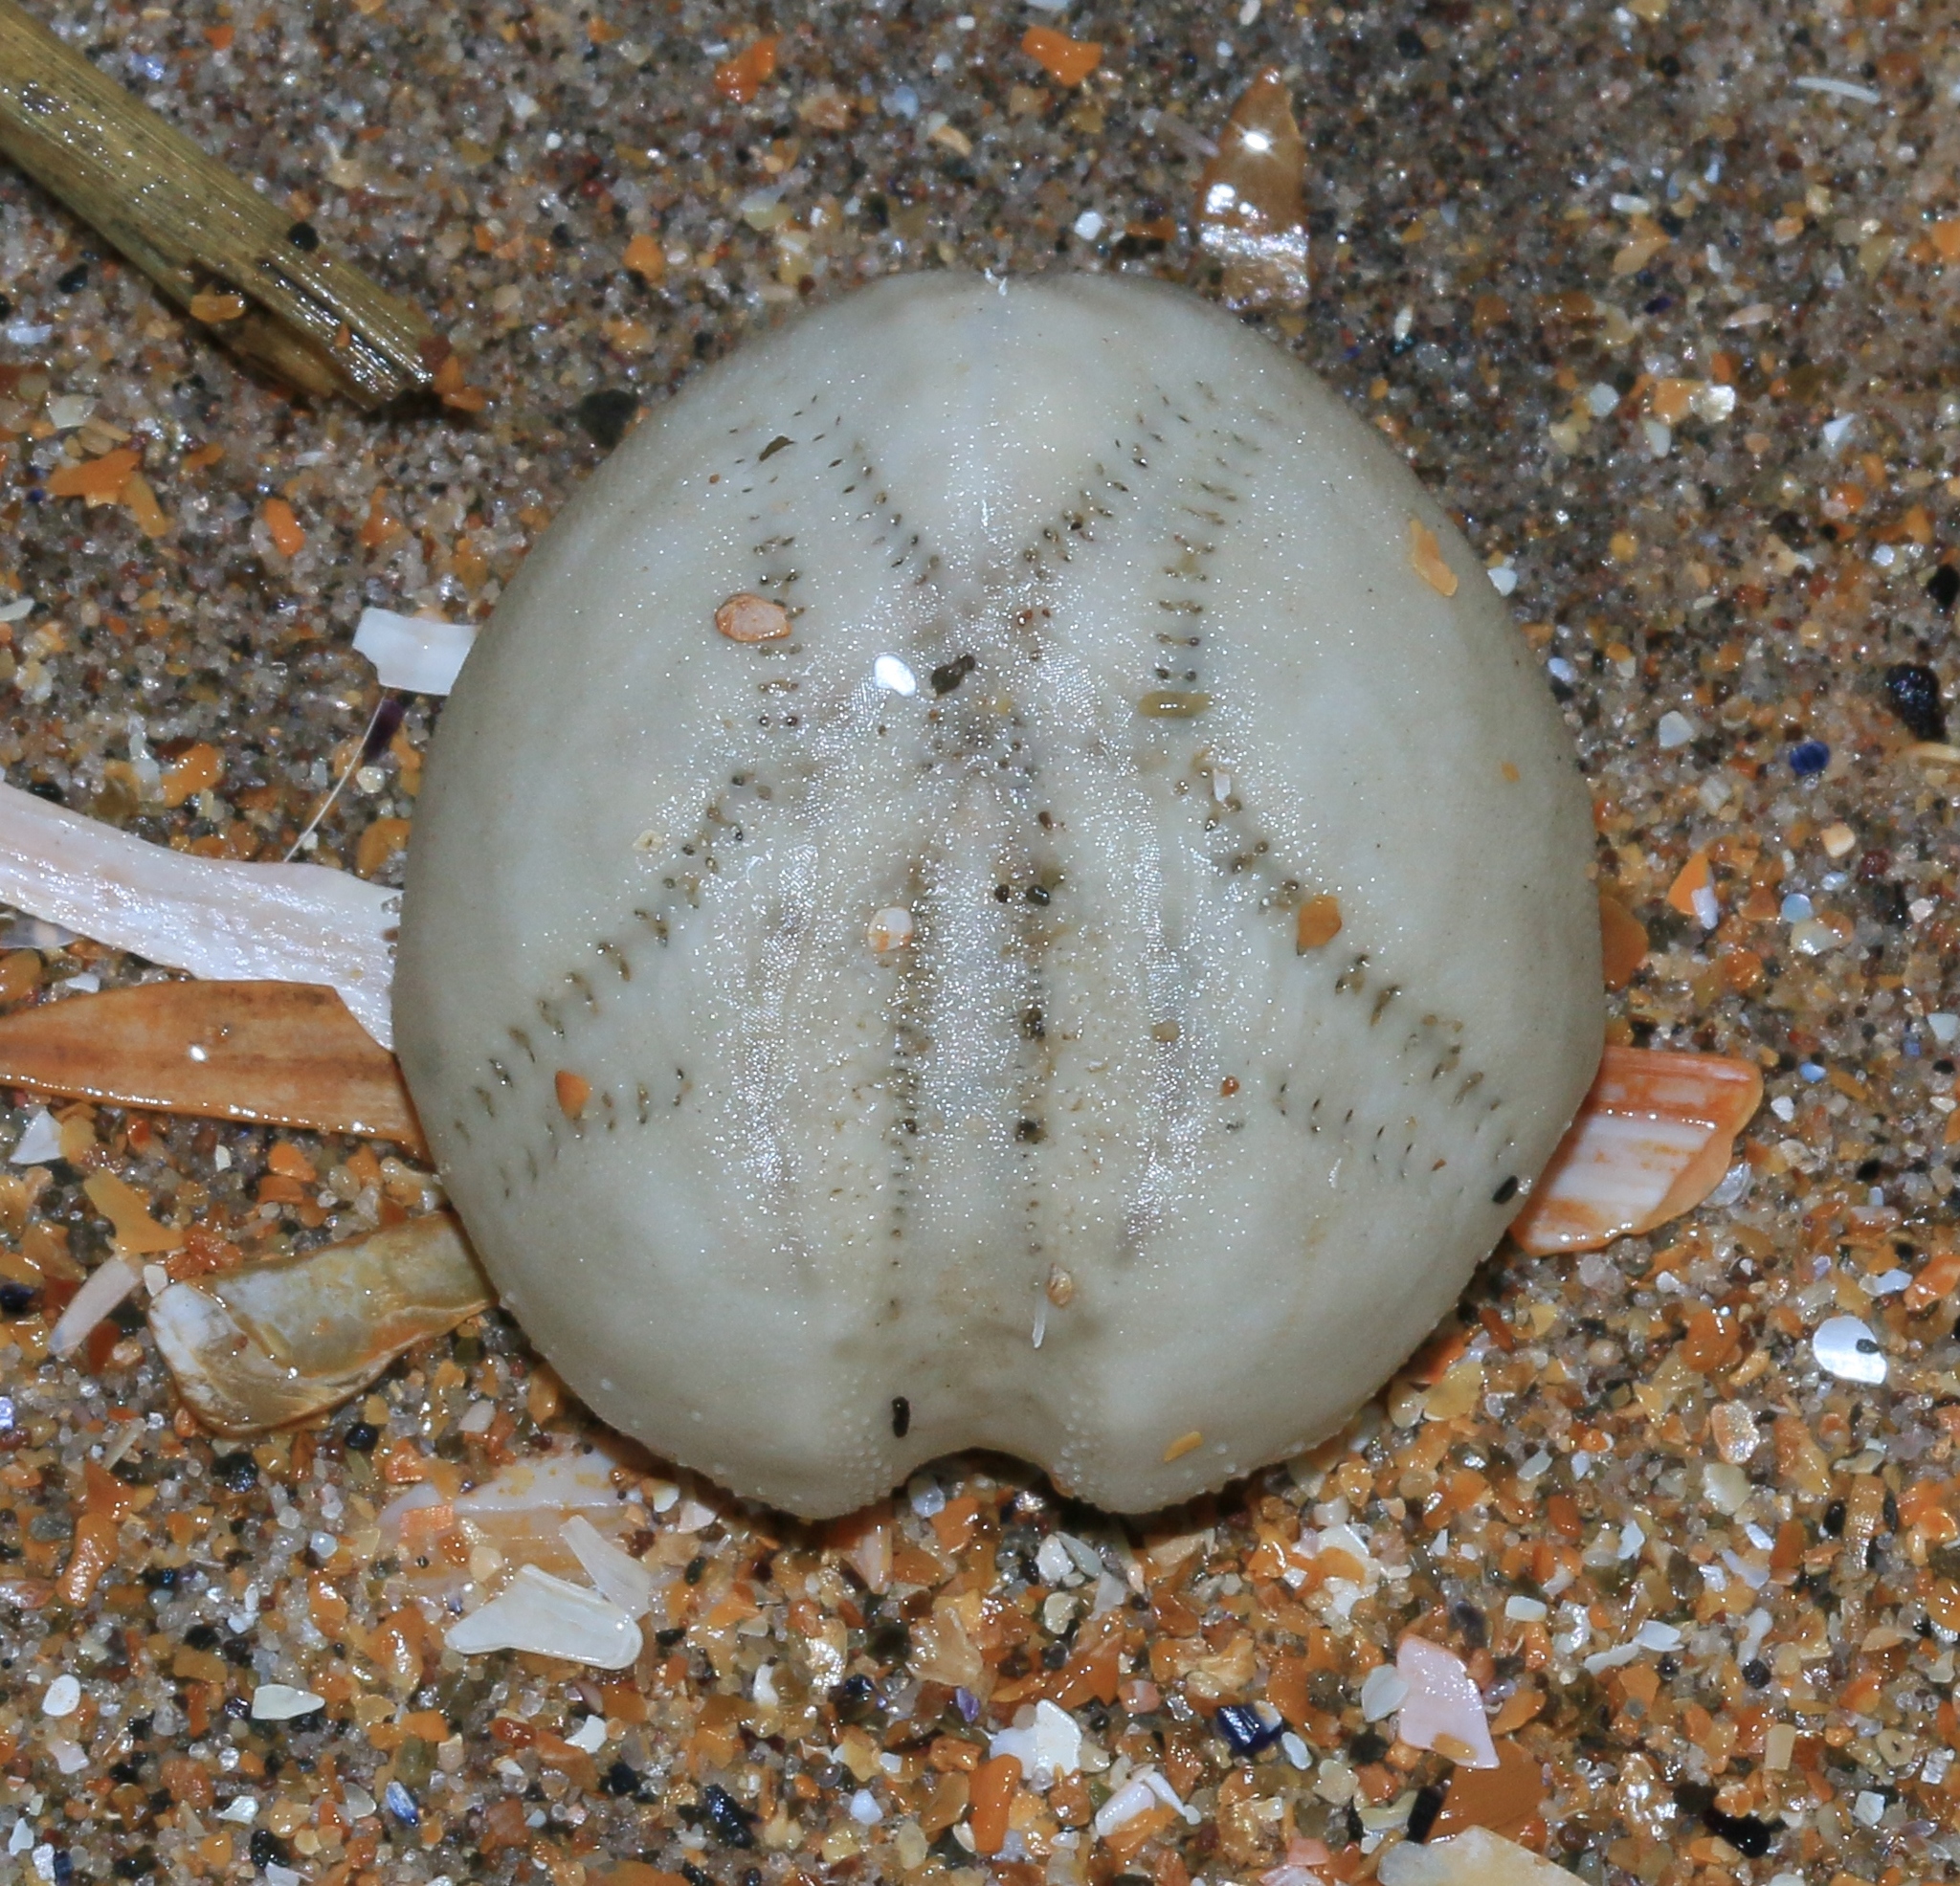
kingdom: Animalia
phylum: Echinodermata
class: Echinoidea
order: Spatangoida
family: Loveniidae
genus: Echinocardium
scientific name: Echinocardium cordatum
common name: Heart-urchin
